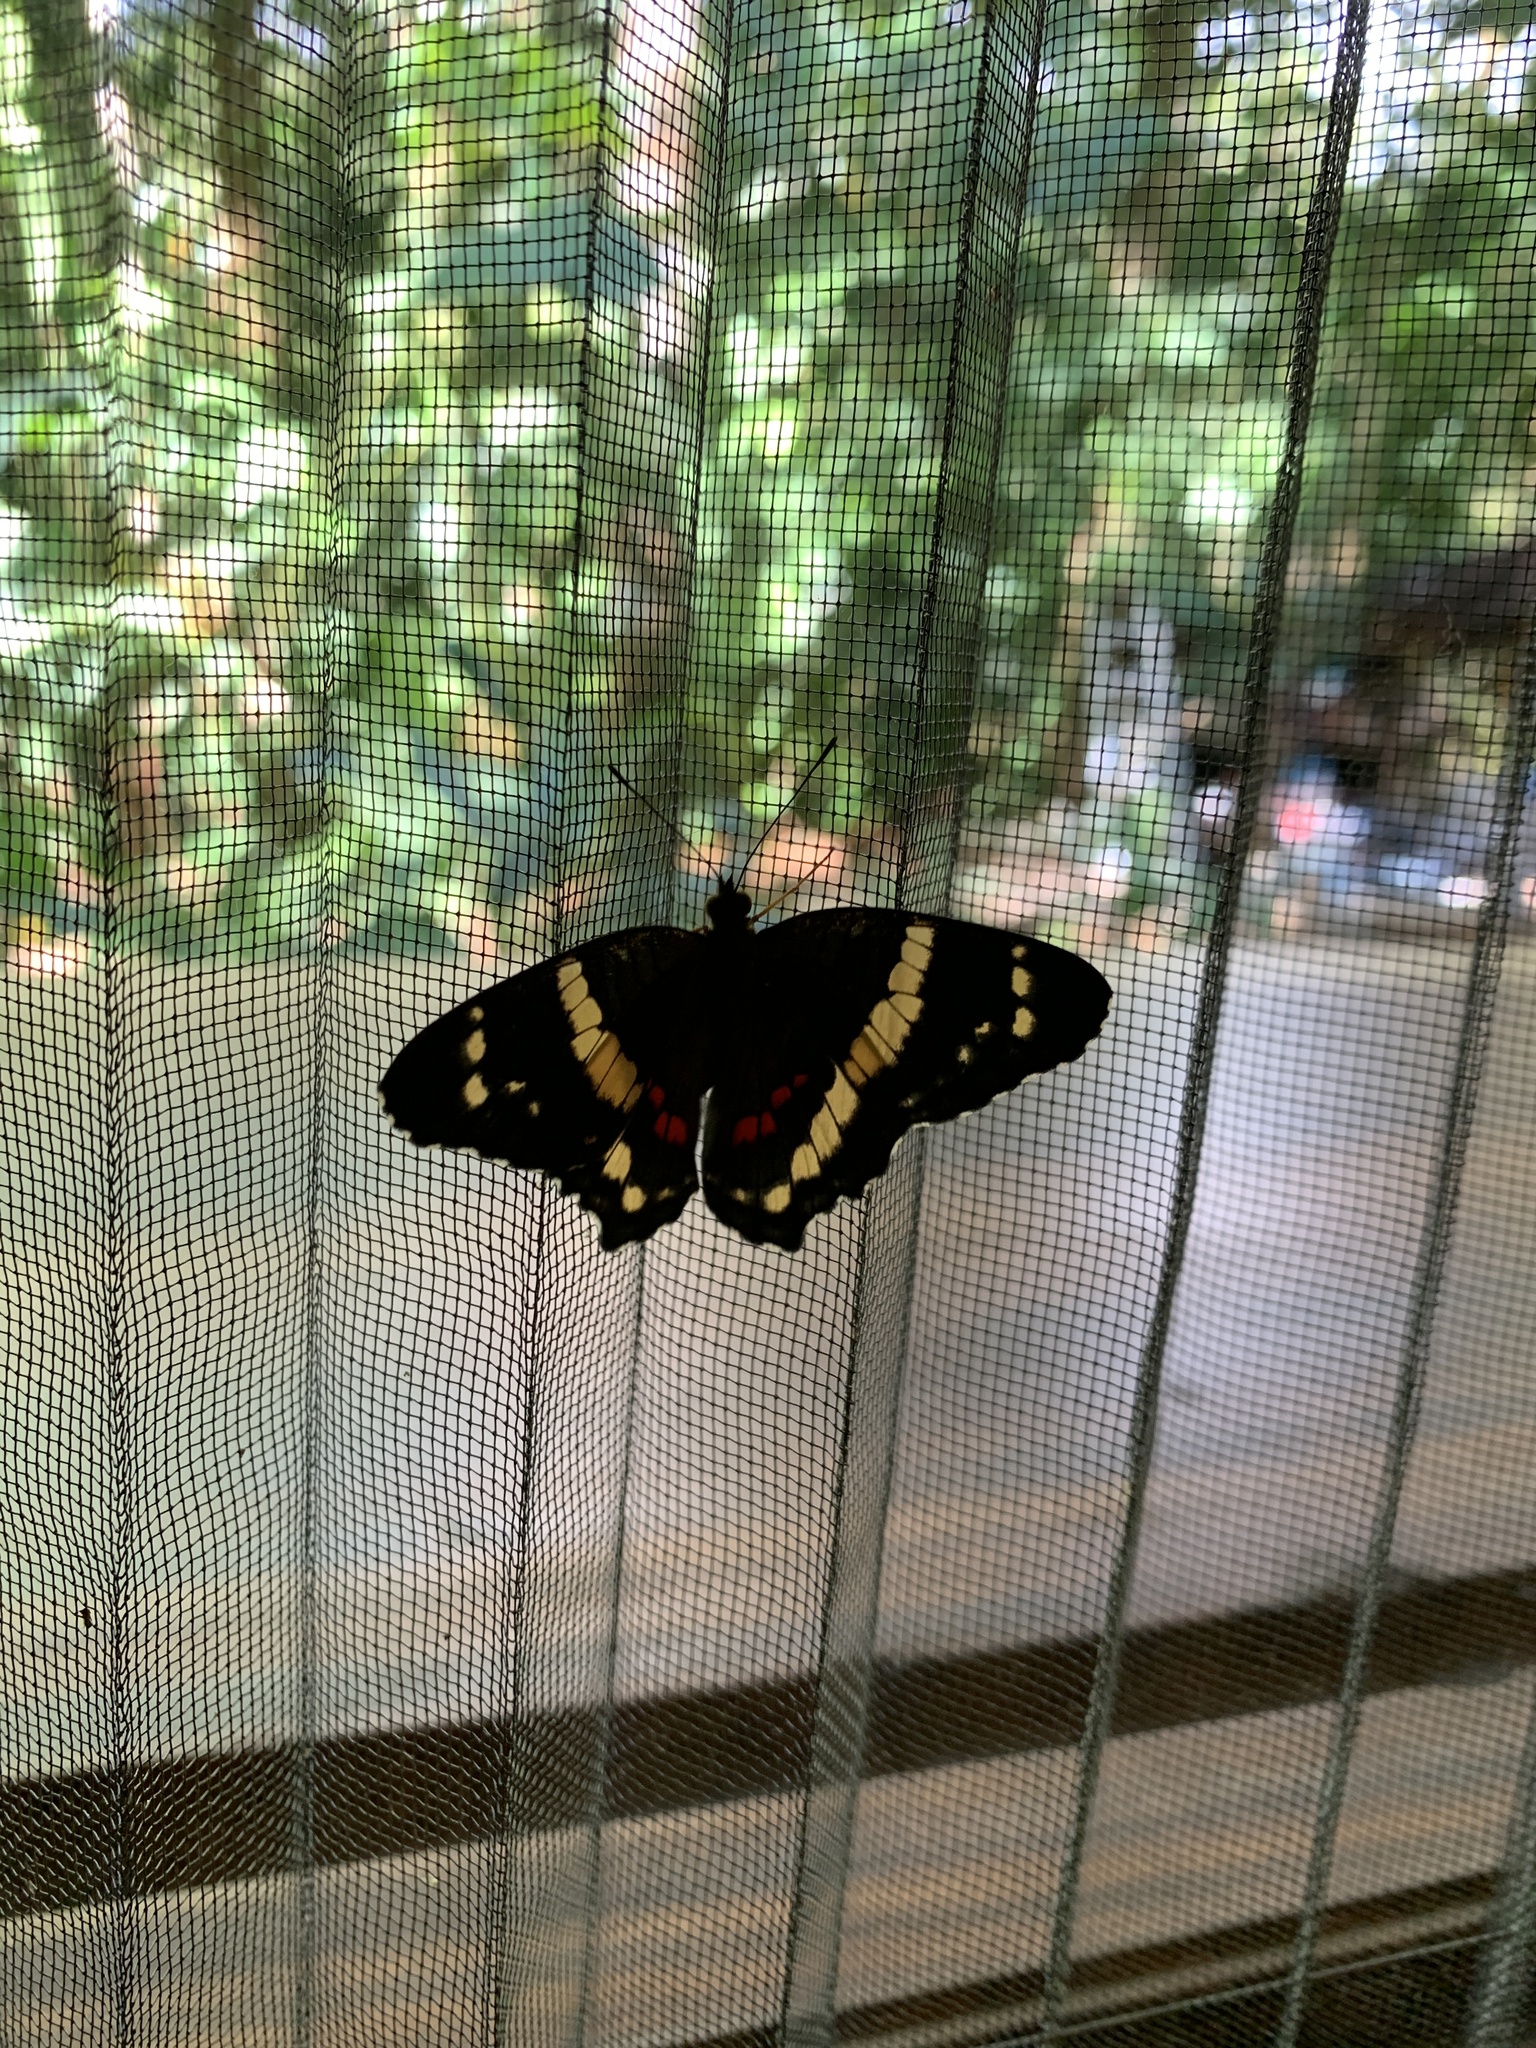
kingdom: Animalia
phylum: Arthropoda
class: Insecta
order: Lepidoptera
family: Nymphalidae
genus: Anartia
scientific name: Anartia fatima
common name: Banded peacock
